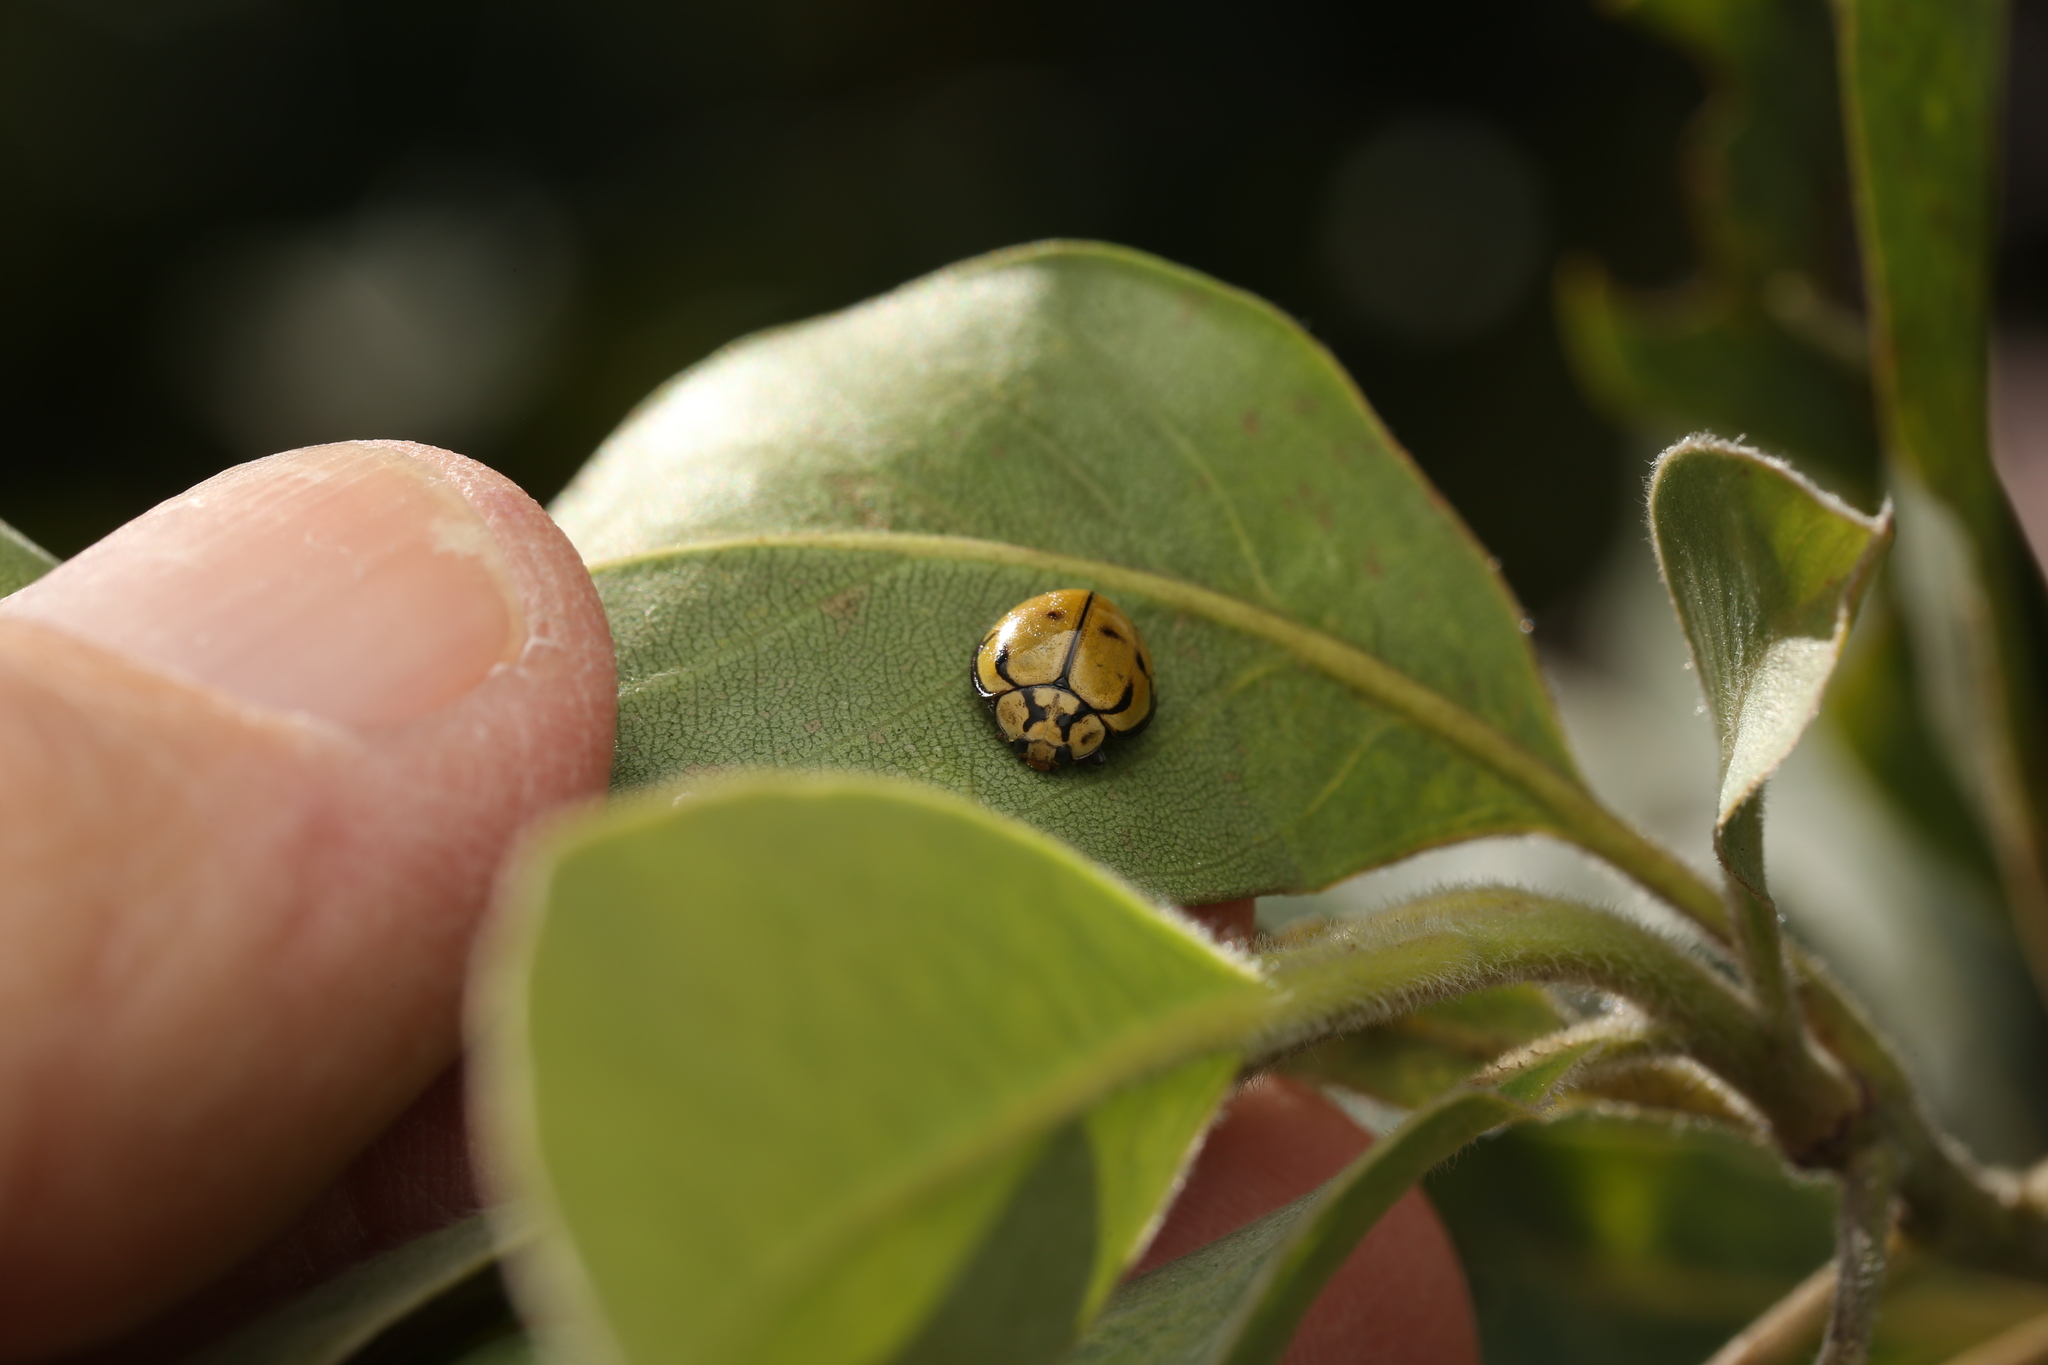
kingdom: Animalia
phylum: Arthropoda
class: Insecta
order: Coleoptera
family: Coccinellidae
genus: Harmonia
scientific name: Harmonia
